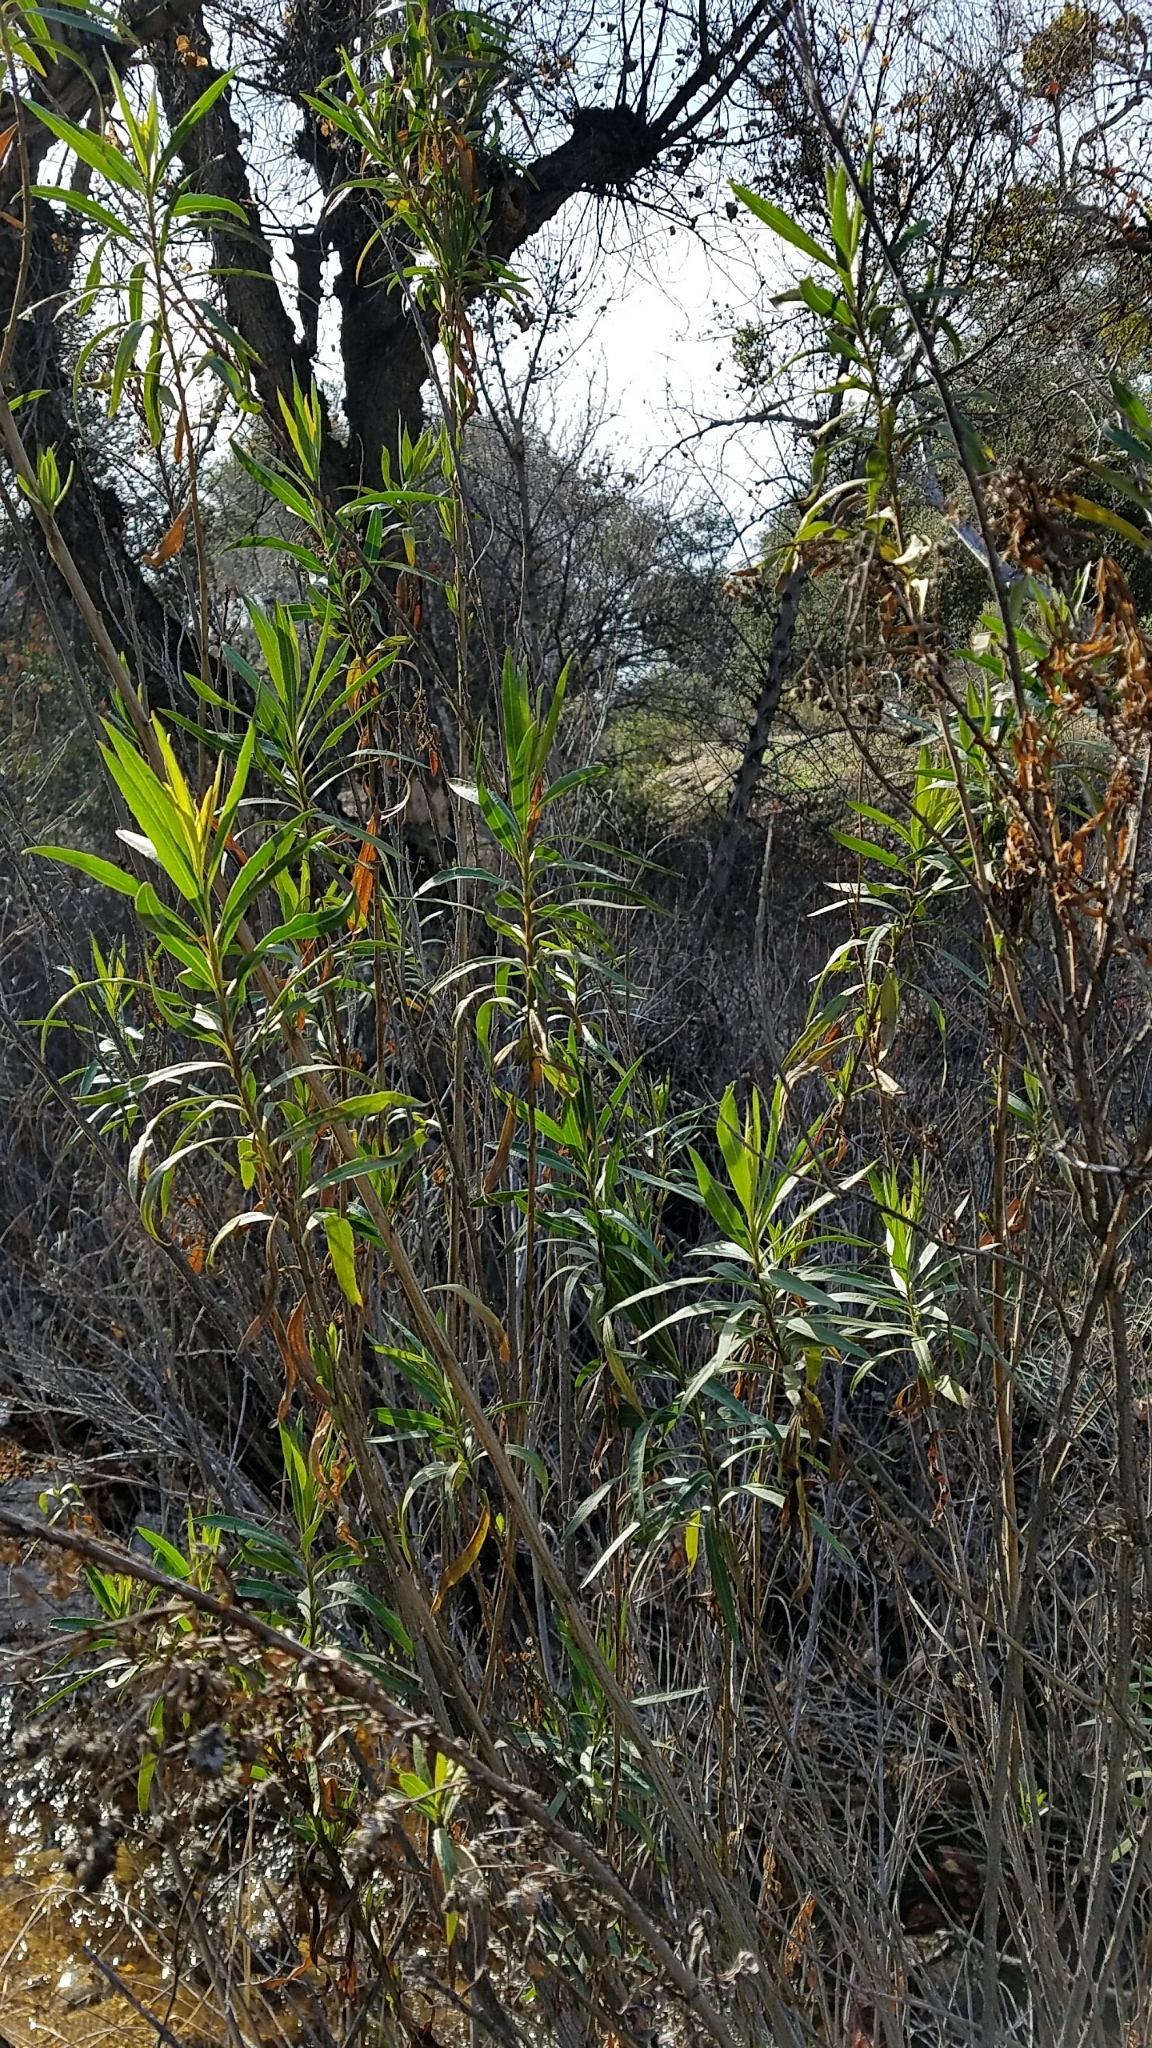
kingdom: Plantae
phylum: Tracheophyta
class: Magnoliopsida
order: Asterales
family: Asteraceae
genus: Baccharis
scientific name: Baccharis salicifolia
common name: Sticky baccharis
